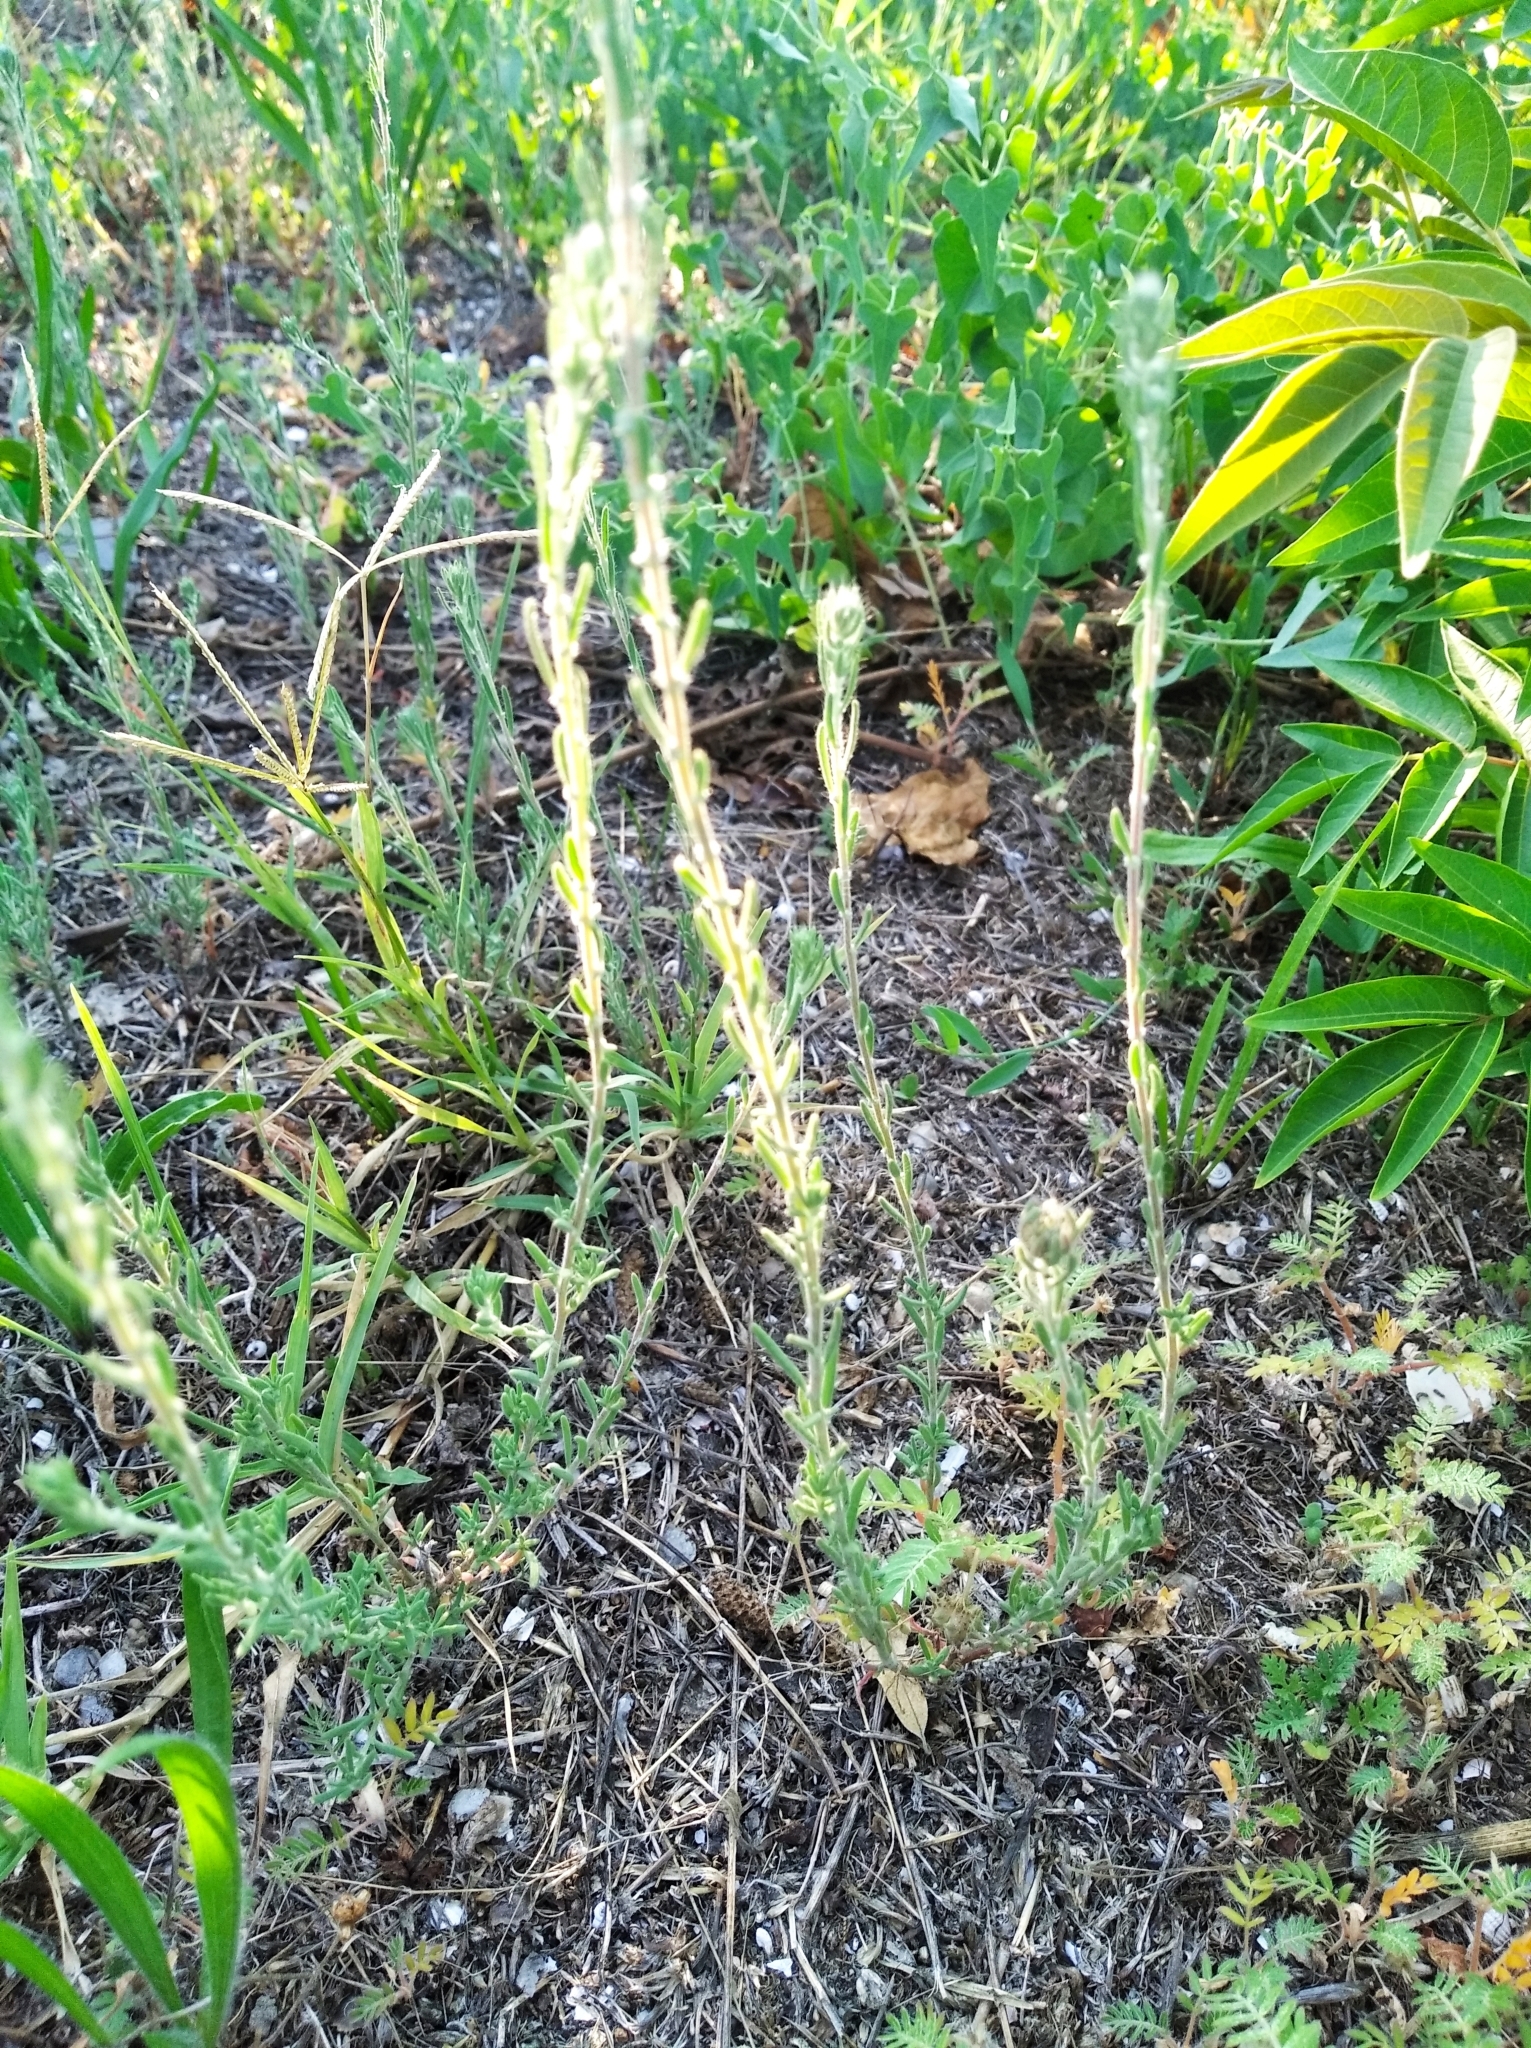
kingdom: Plantae
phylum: Tracheophyta
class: Magnoliopsida
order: Caryophyllales
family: Amaranthaceae
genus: Sedobassia
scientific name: Sedobassia sedoides
